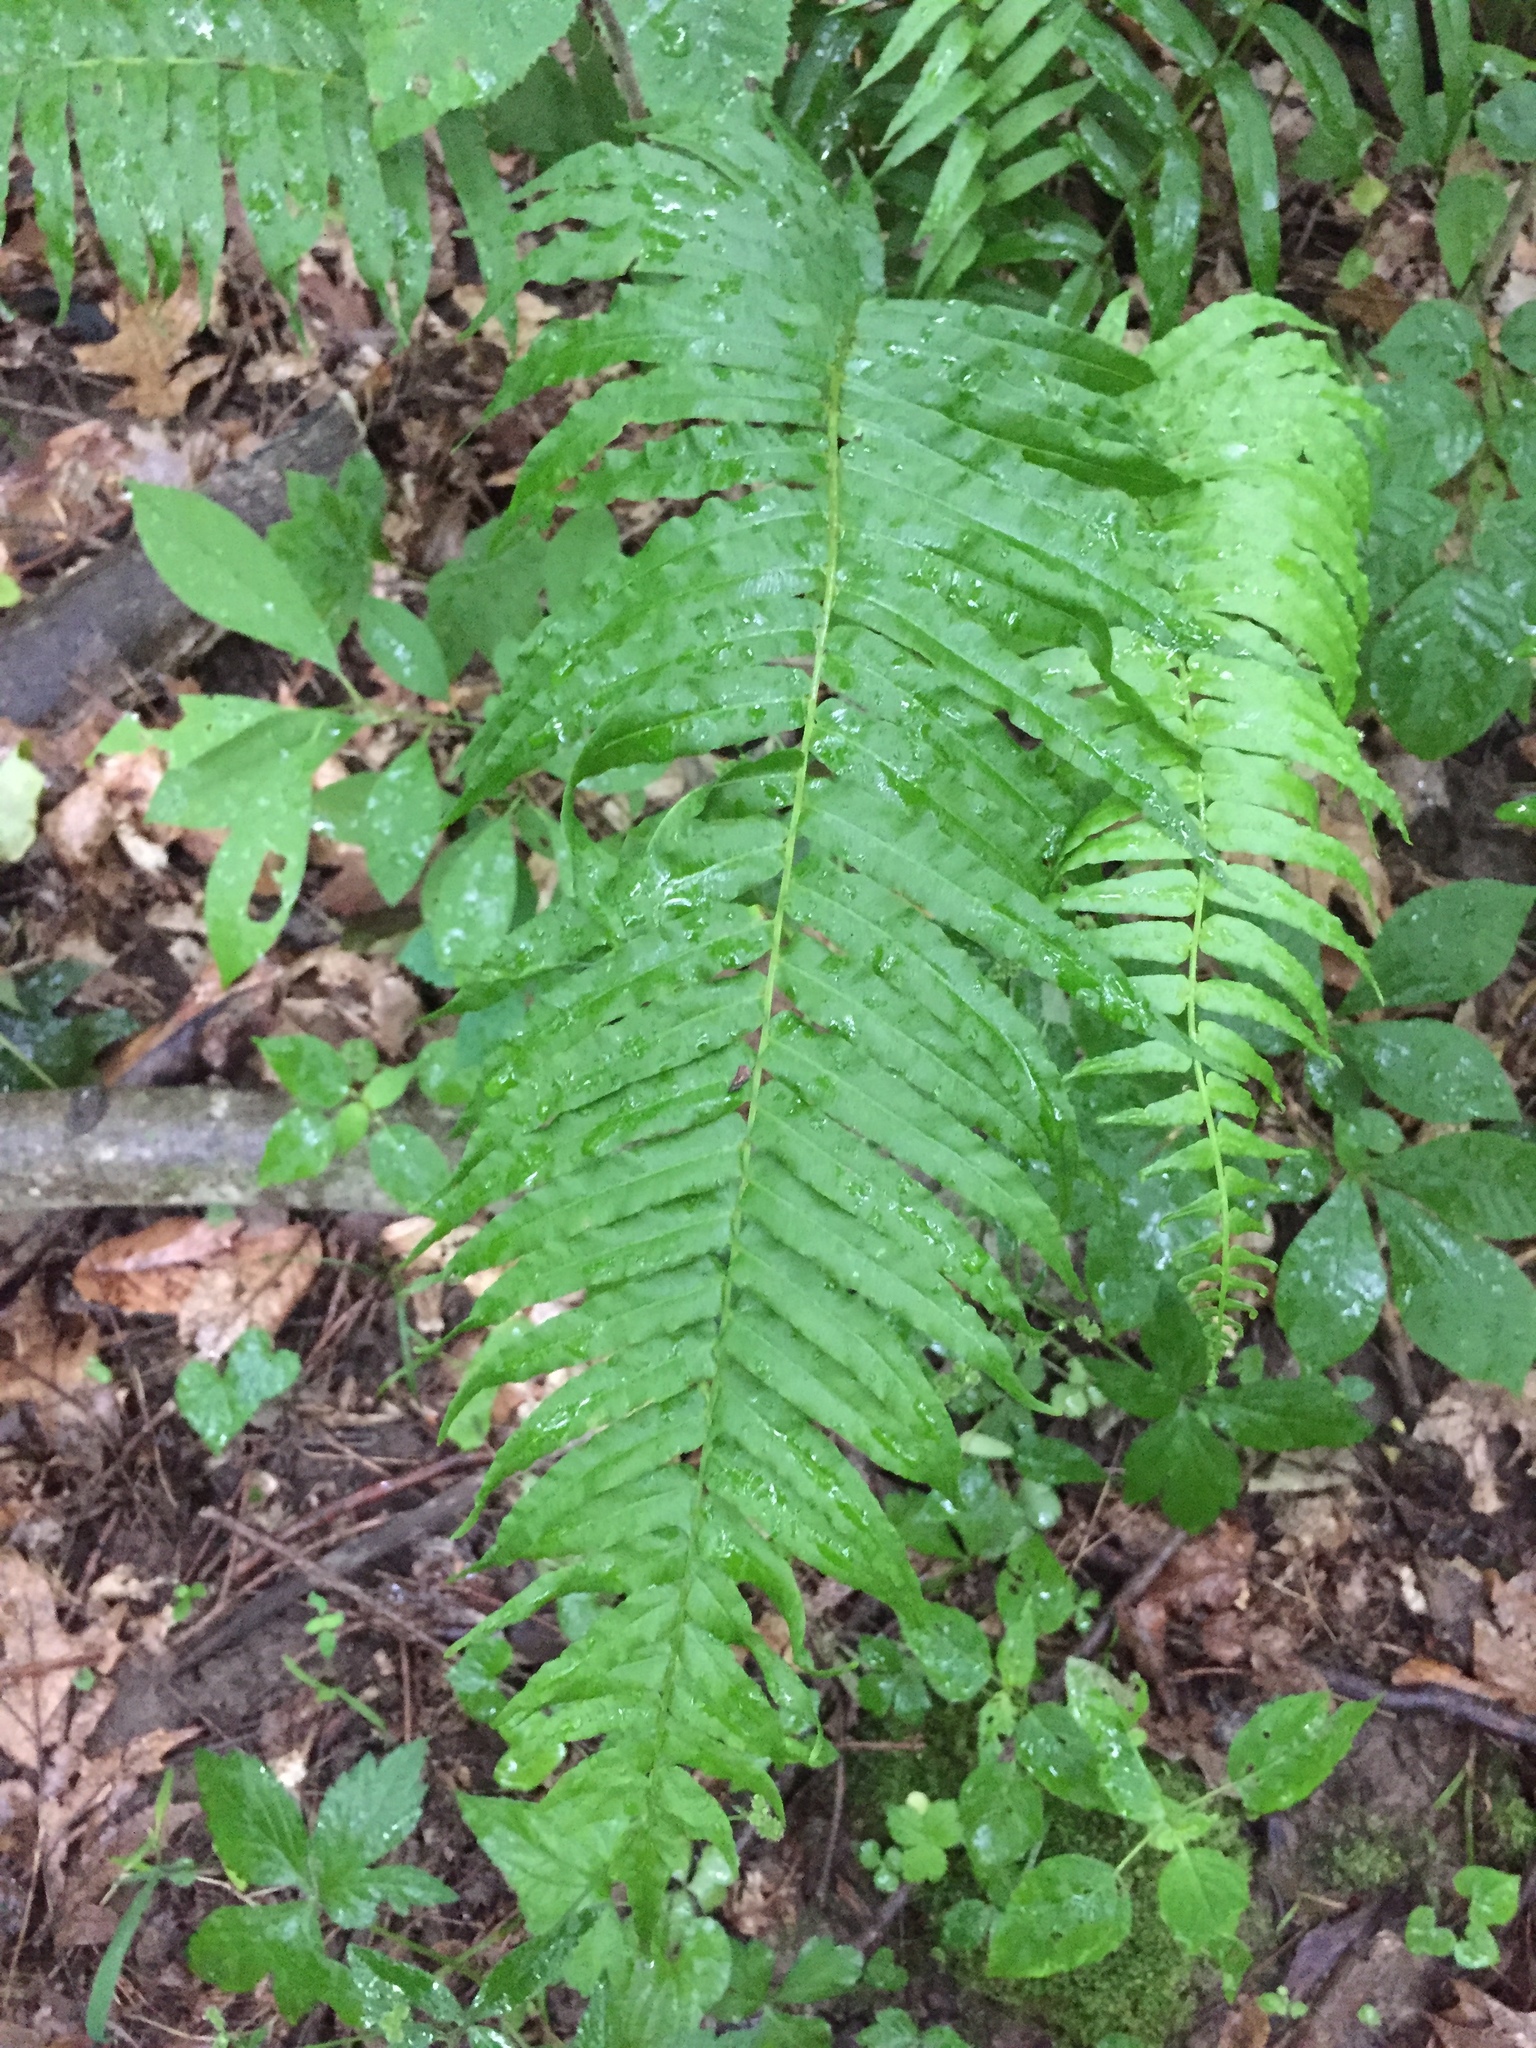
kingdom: Plantae
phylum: Tracheophyta
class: Polypodiopsida
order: Polypodiales
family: Diplaziopsidaceae
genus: Homalosorus
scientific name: Homalosorus pycnocarpos
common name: Glade fern
